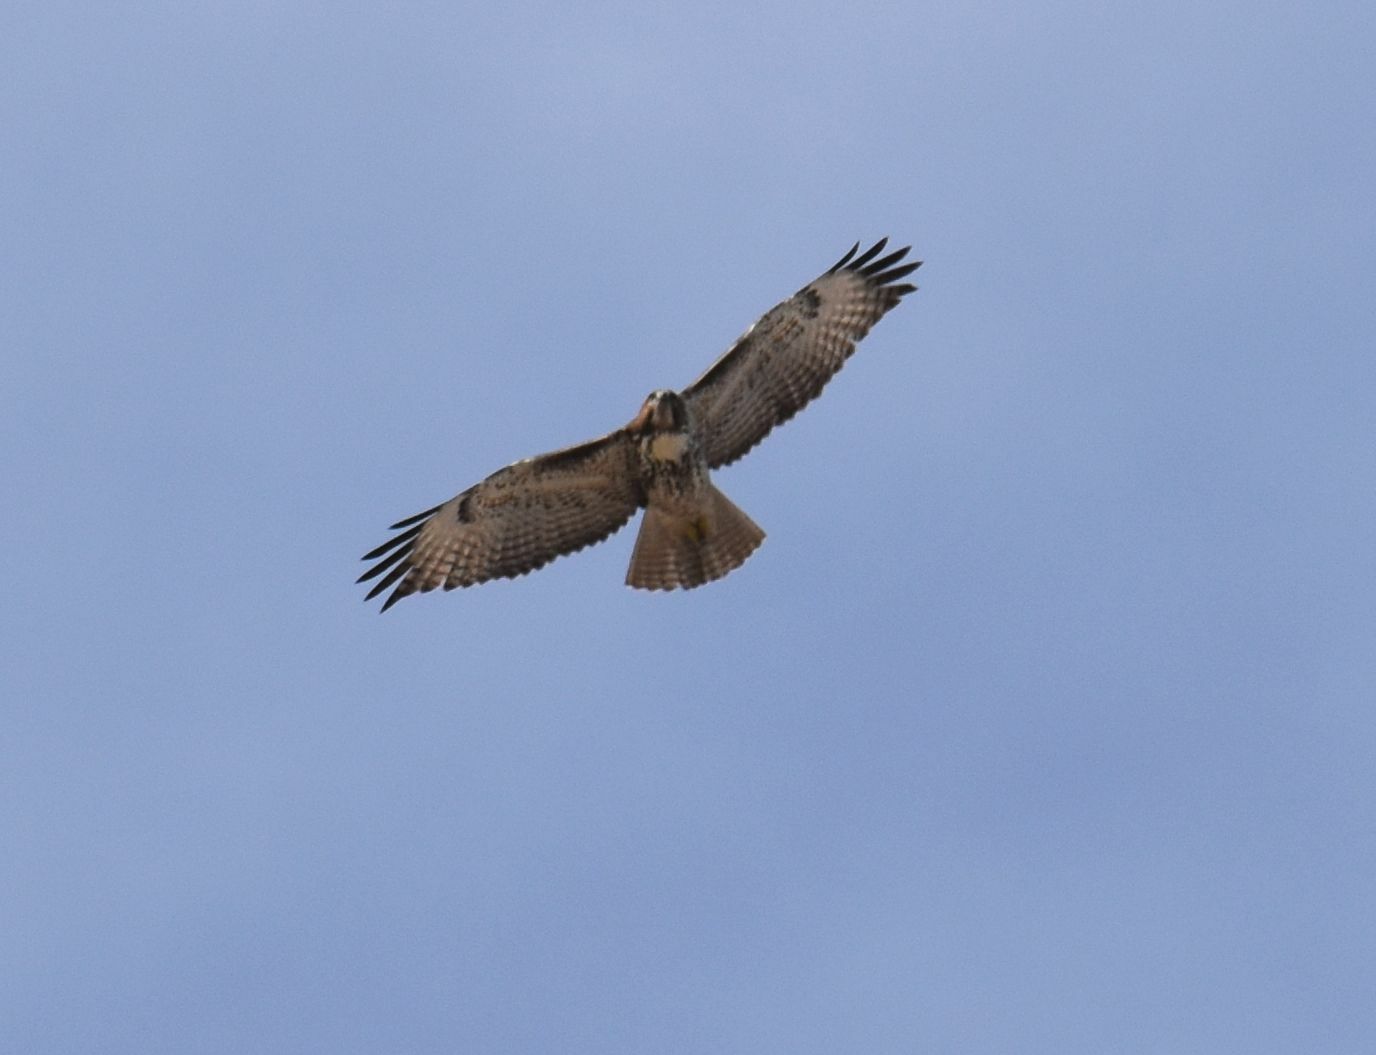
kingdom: Animalia
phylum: Chordata
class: Aves
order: Accipitriformes
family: Accipitridae
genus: Buteo
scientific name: Buteo jamaicensis
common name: Red-tailed hawk
